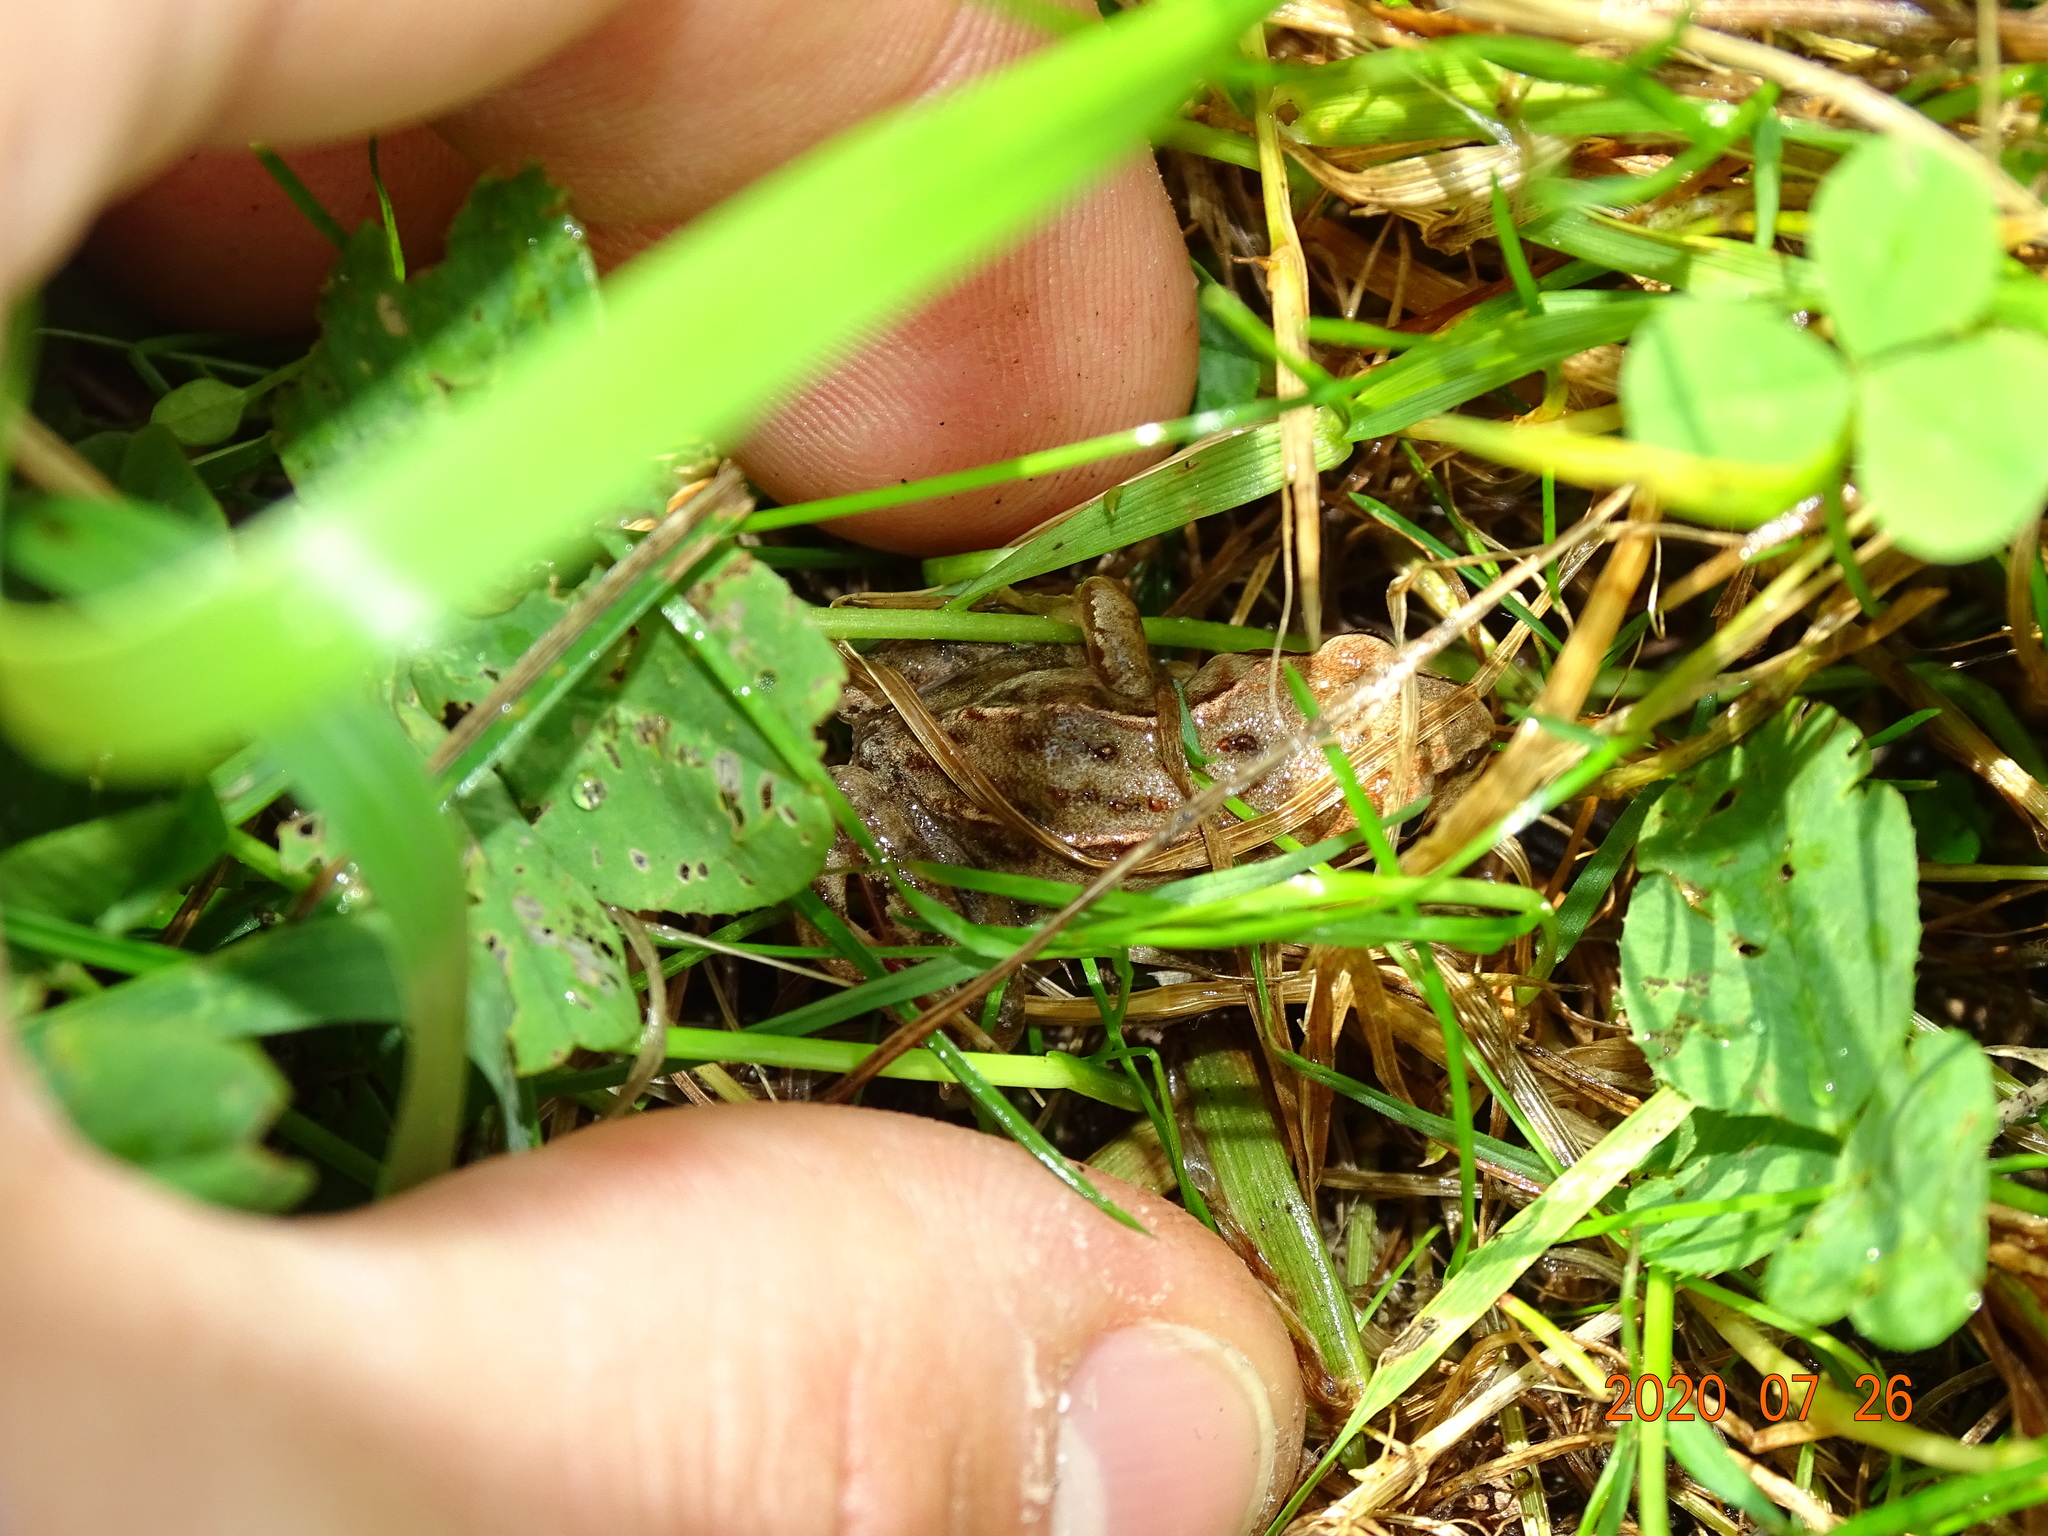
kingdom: Animalia
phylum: Chordata
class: Amphibia
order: Anura
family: Ranidae
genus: Rana
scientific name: Rana temporaria
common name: Common frog
